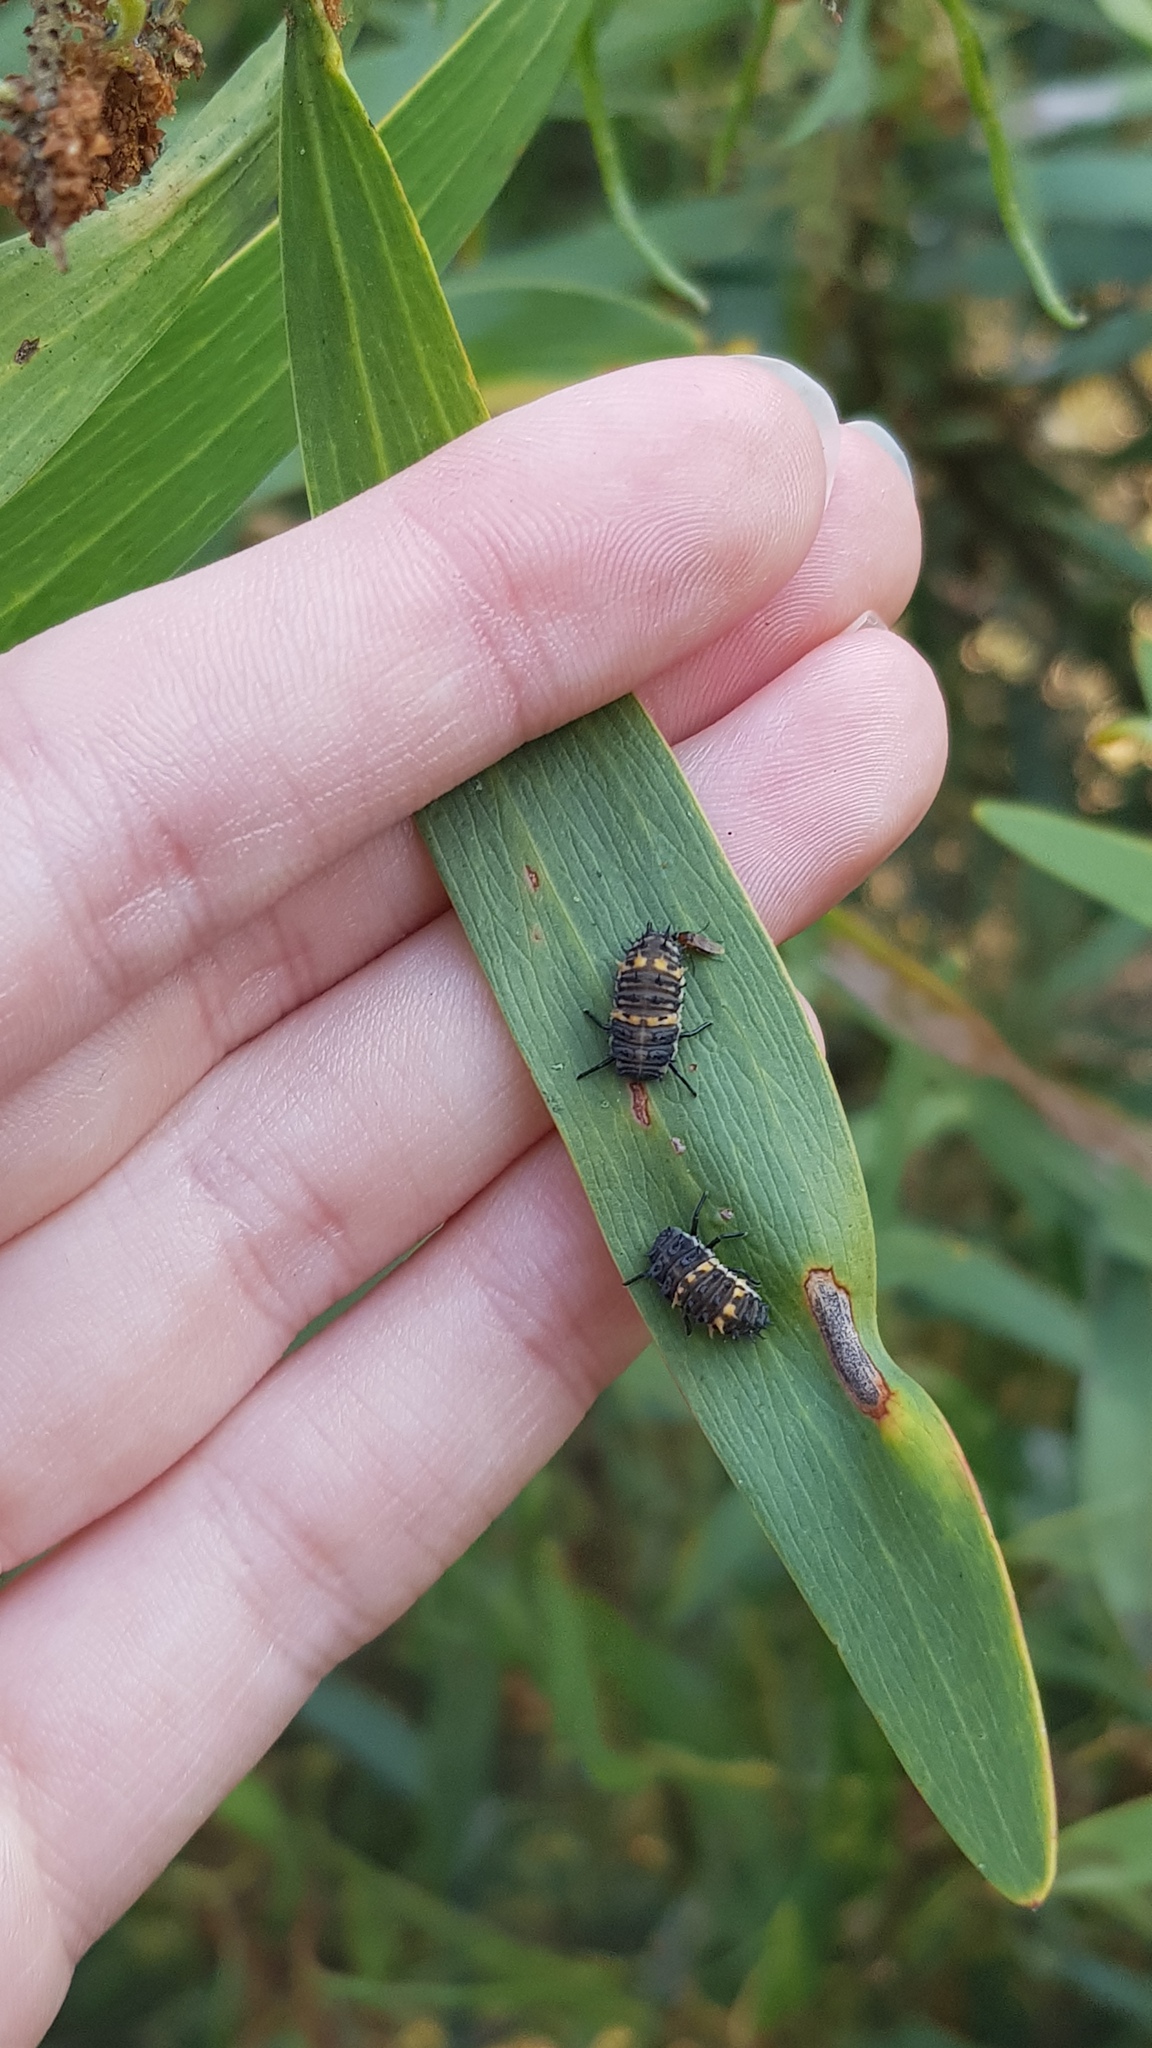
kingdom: Animalia
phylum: Arthropoda
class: Insecta
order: Coleoptera
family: Coccinellidae
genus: Harmonia
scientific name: Harmonia conformis
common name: Common spotted ladybird beetle
